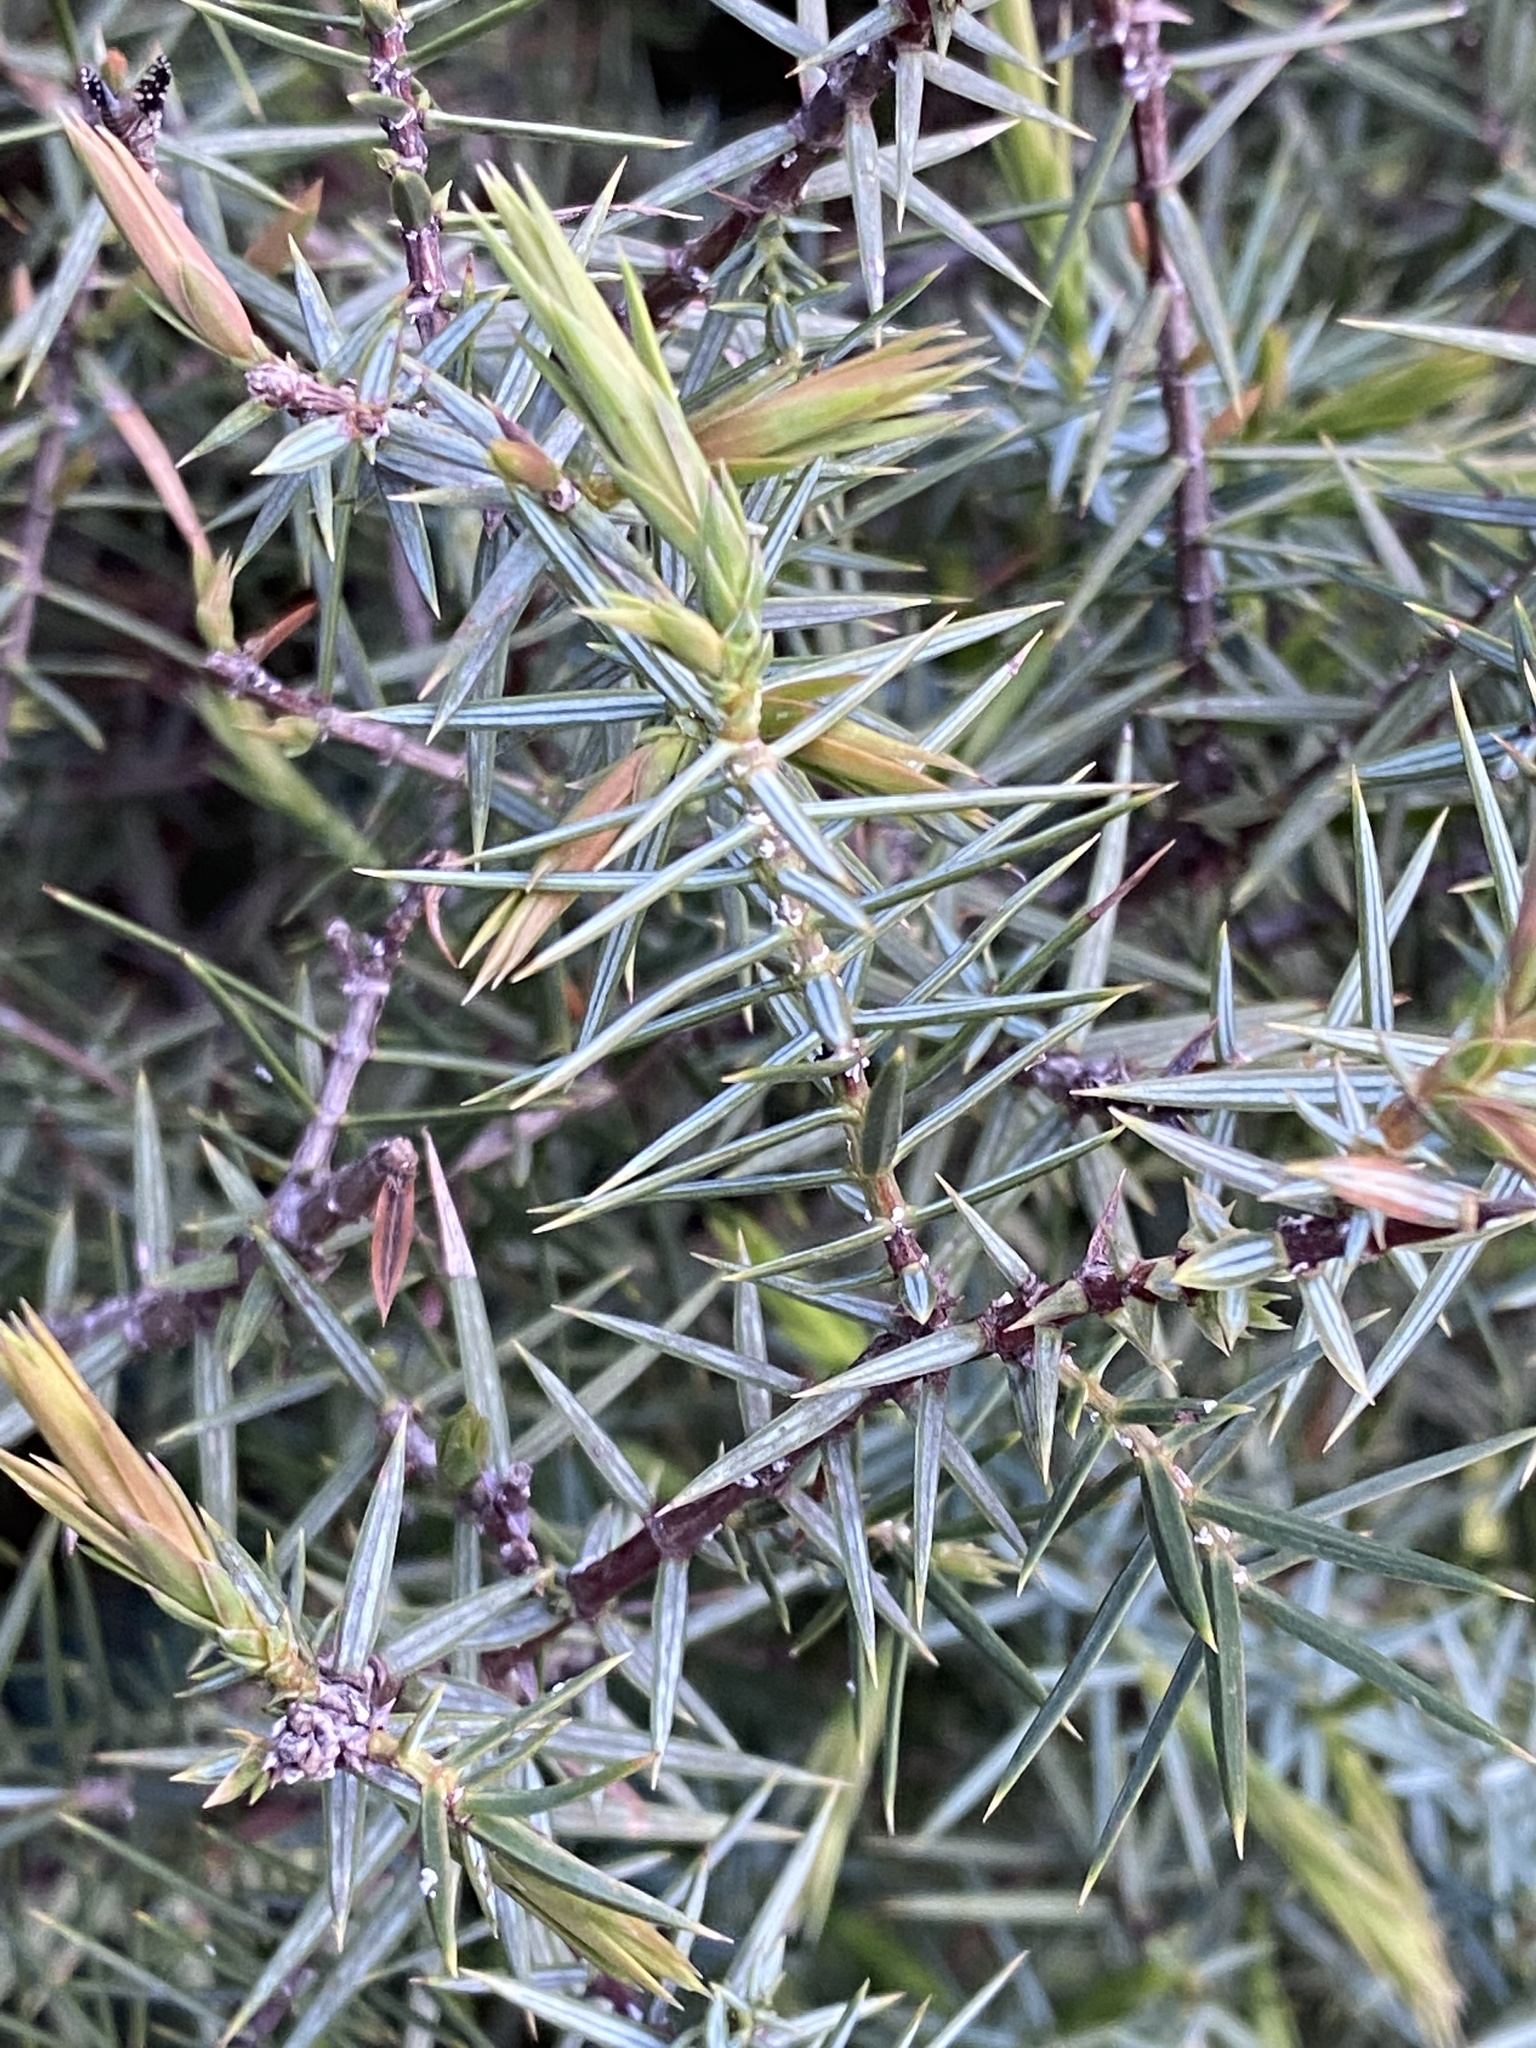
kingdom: Plantae
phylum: Tracheophyta
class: Pinopsida
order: Pinales
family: Cupressaceae
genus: Juniperus
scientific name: Juniperus oxycedrus
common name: Prickly juniper
